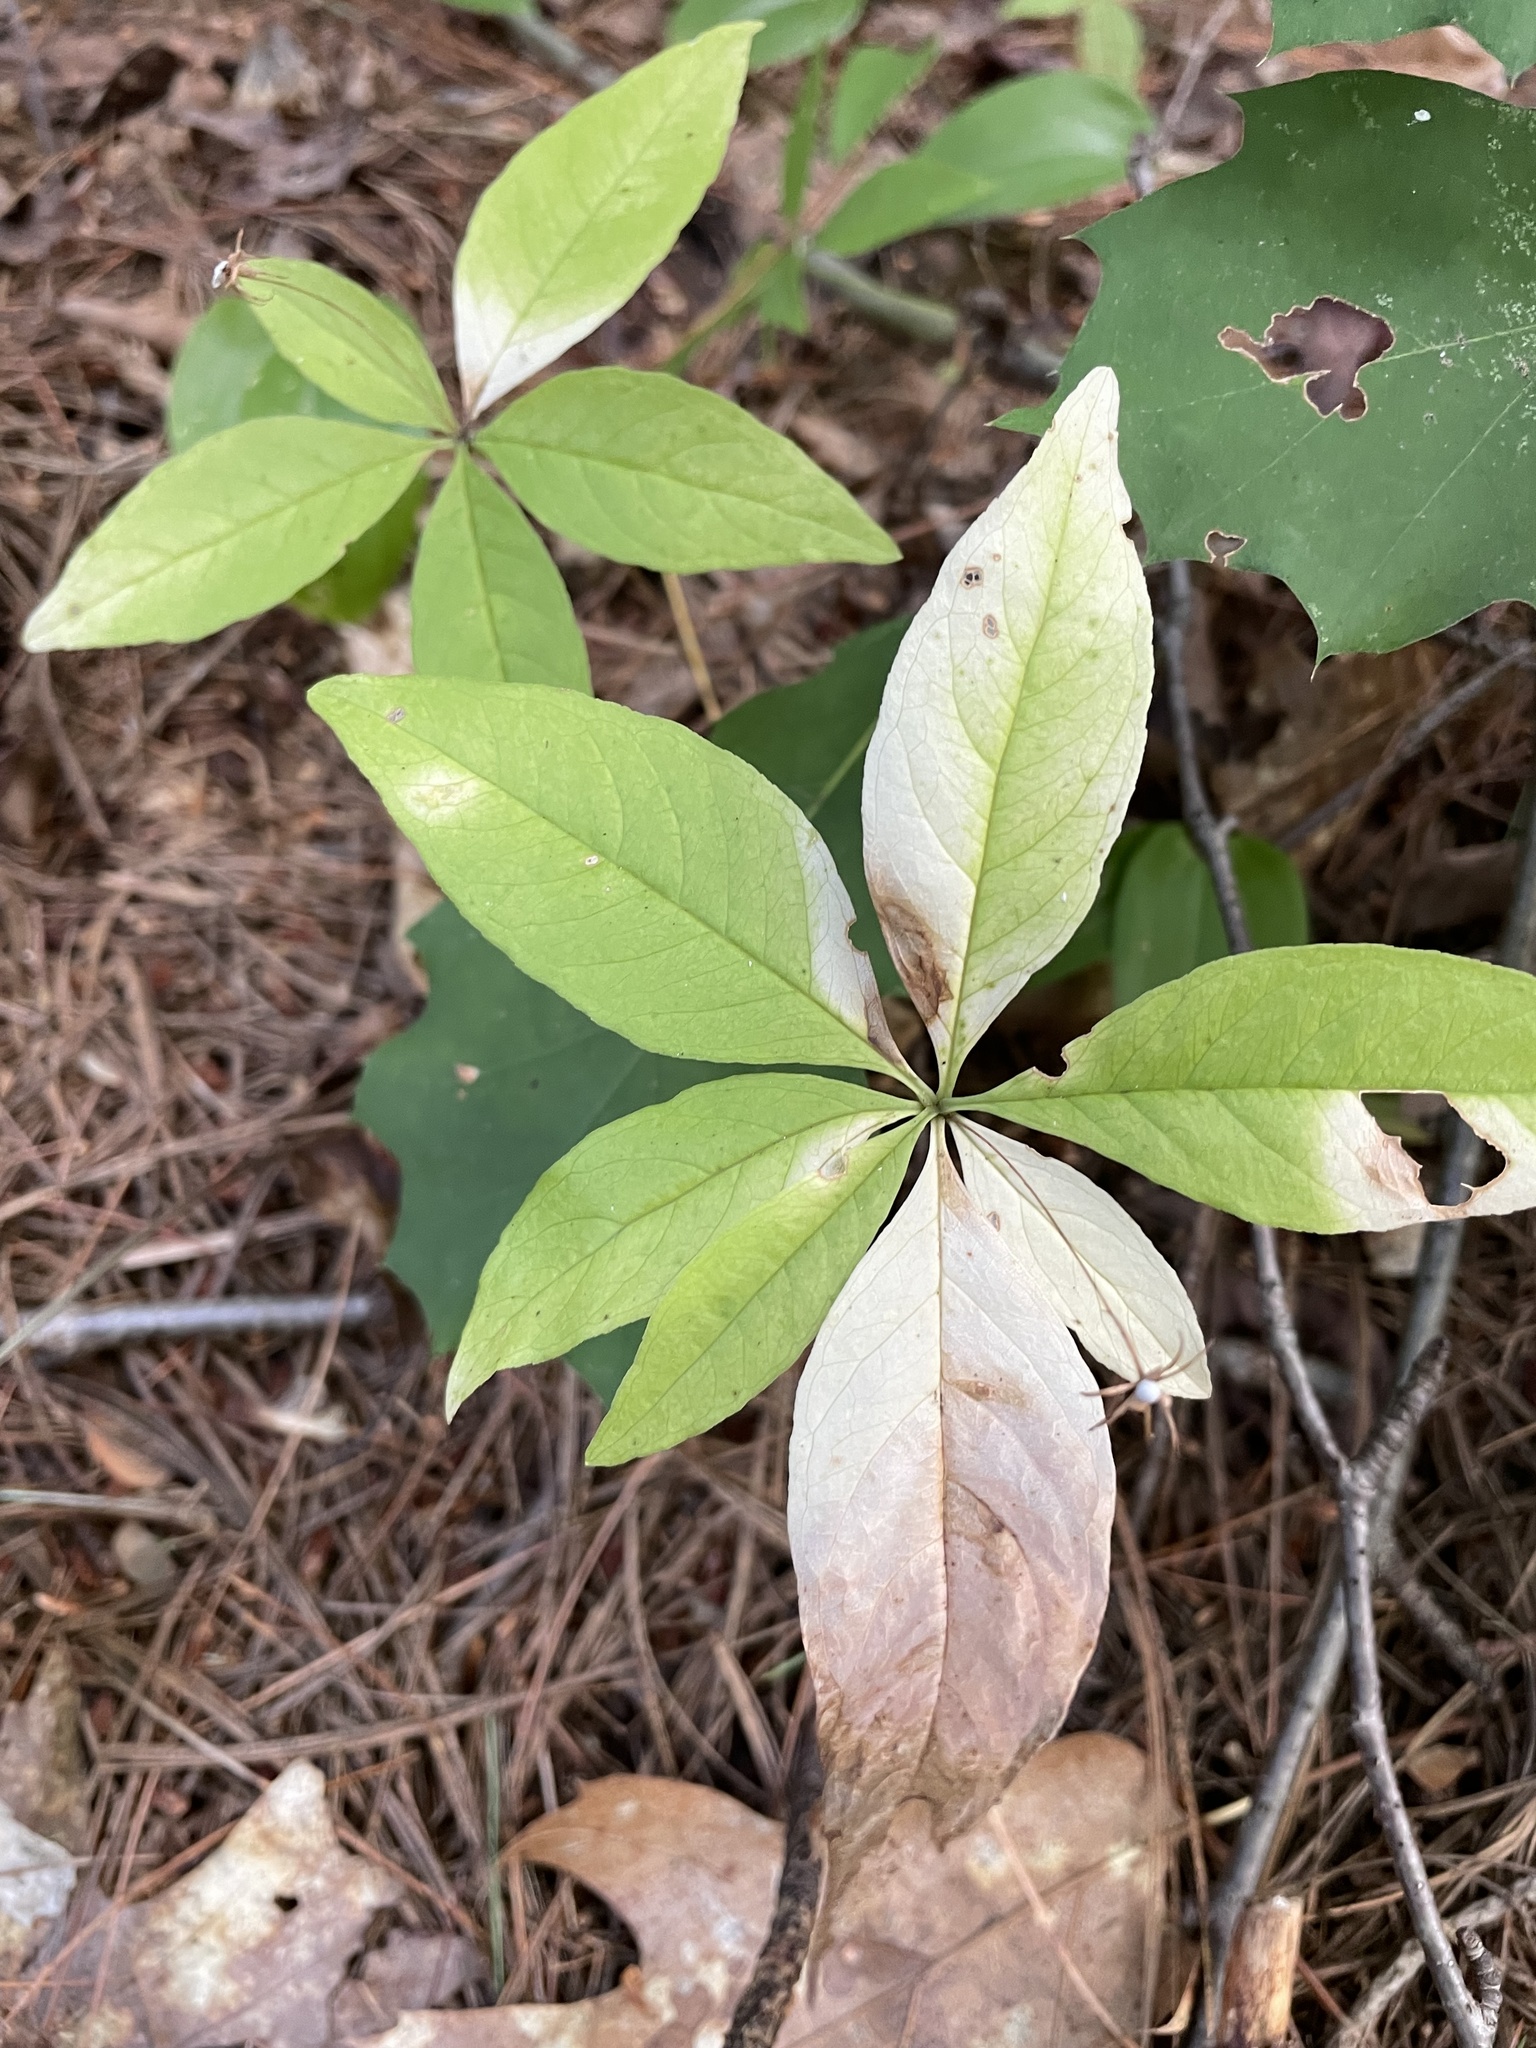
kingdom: Plantae
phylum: Tracheophyta
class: Magnoliopsida
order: Ericales
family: Primulaceae
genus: Lysimachia
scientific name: Lysimachia borealis
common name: American starflower
